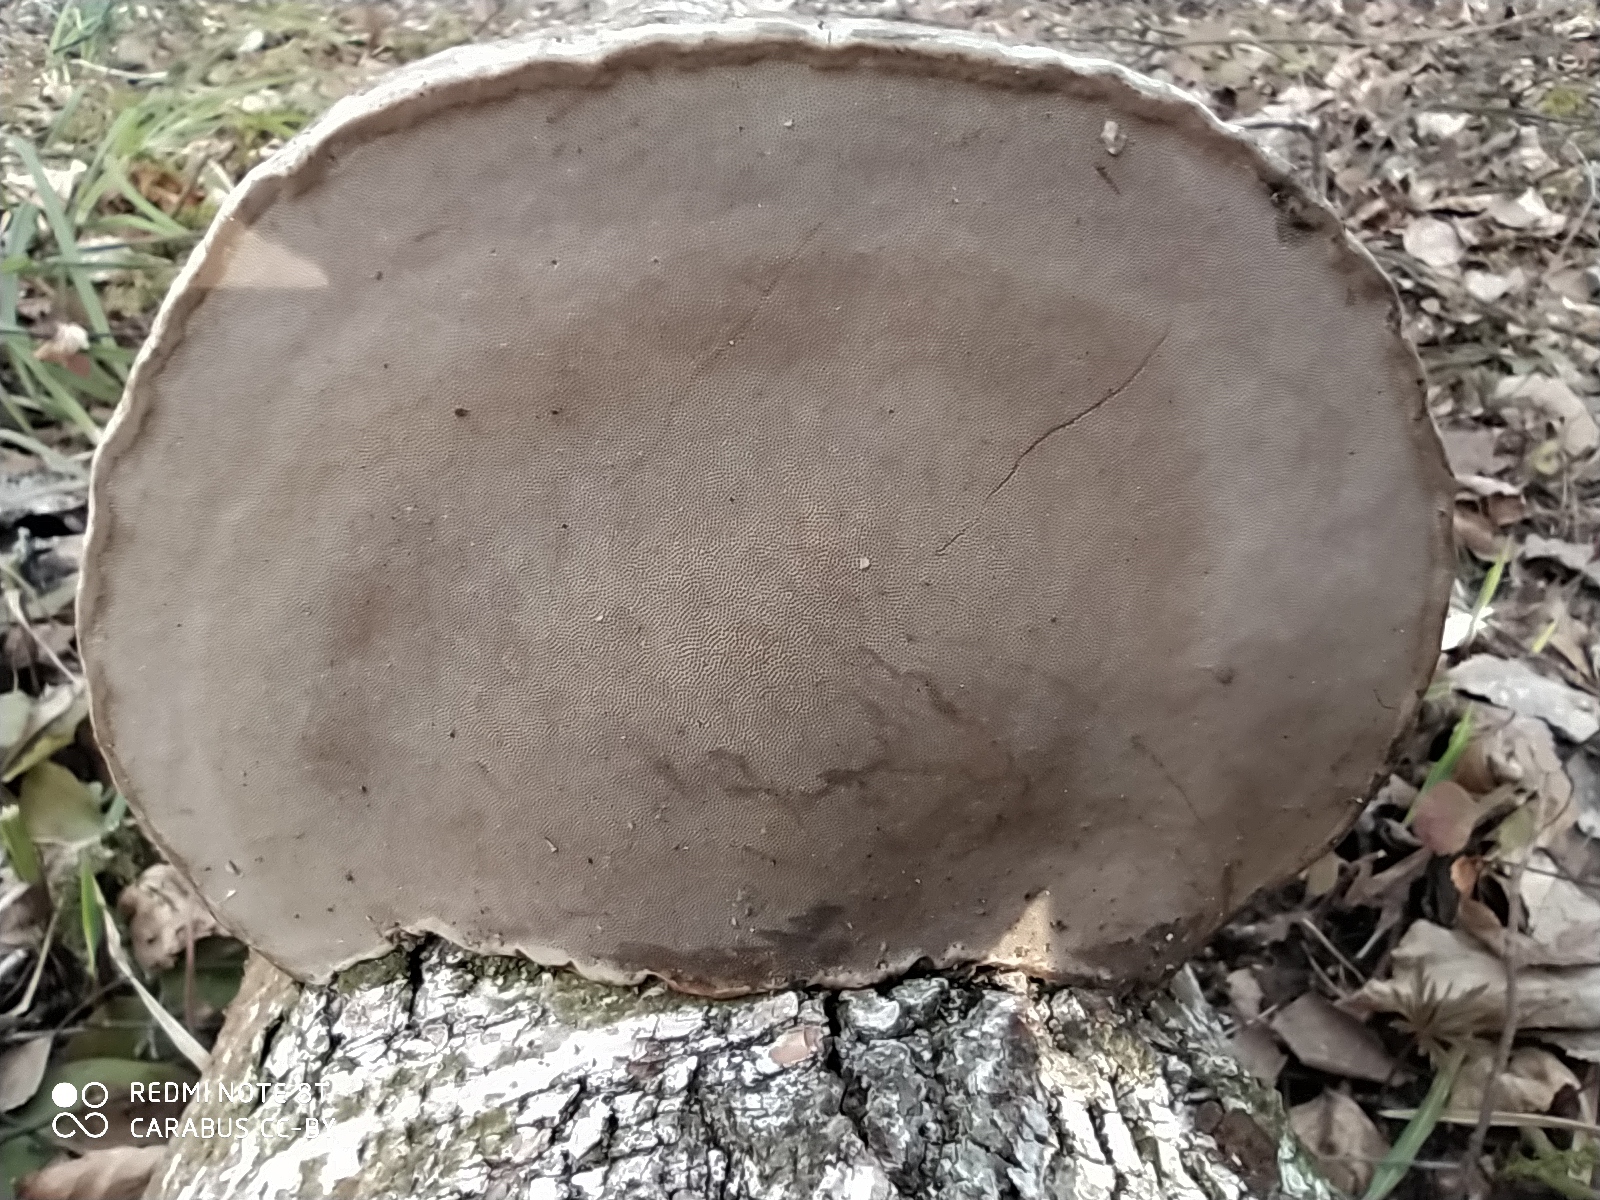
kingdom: Fungi
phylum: Basidiomycota
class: Agaricomycetes
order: Polyporales
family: Polyporaceae
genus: Fomes
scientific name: Fomes fomentarius
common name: Hoof fungus
